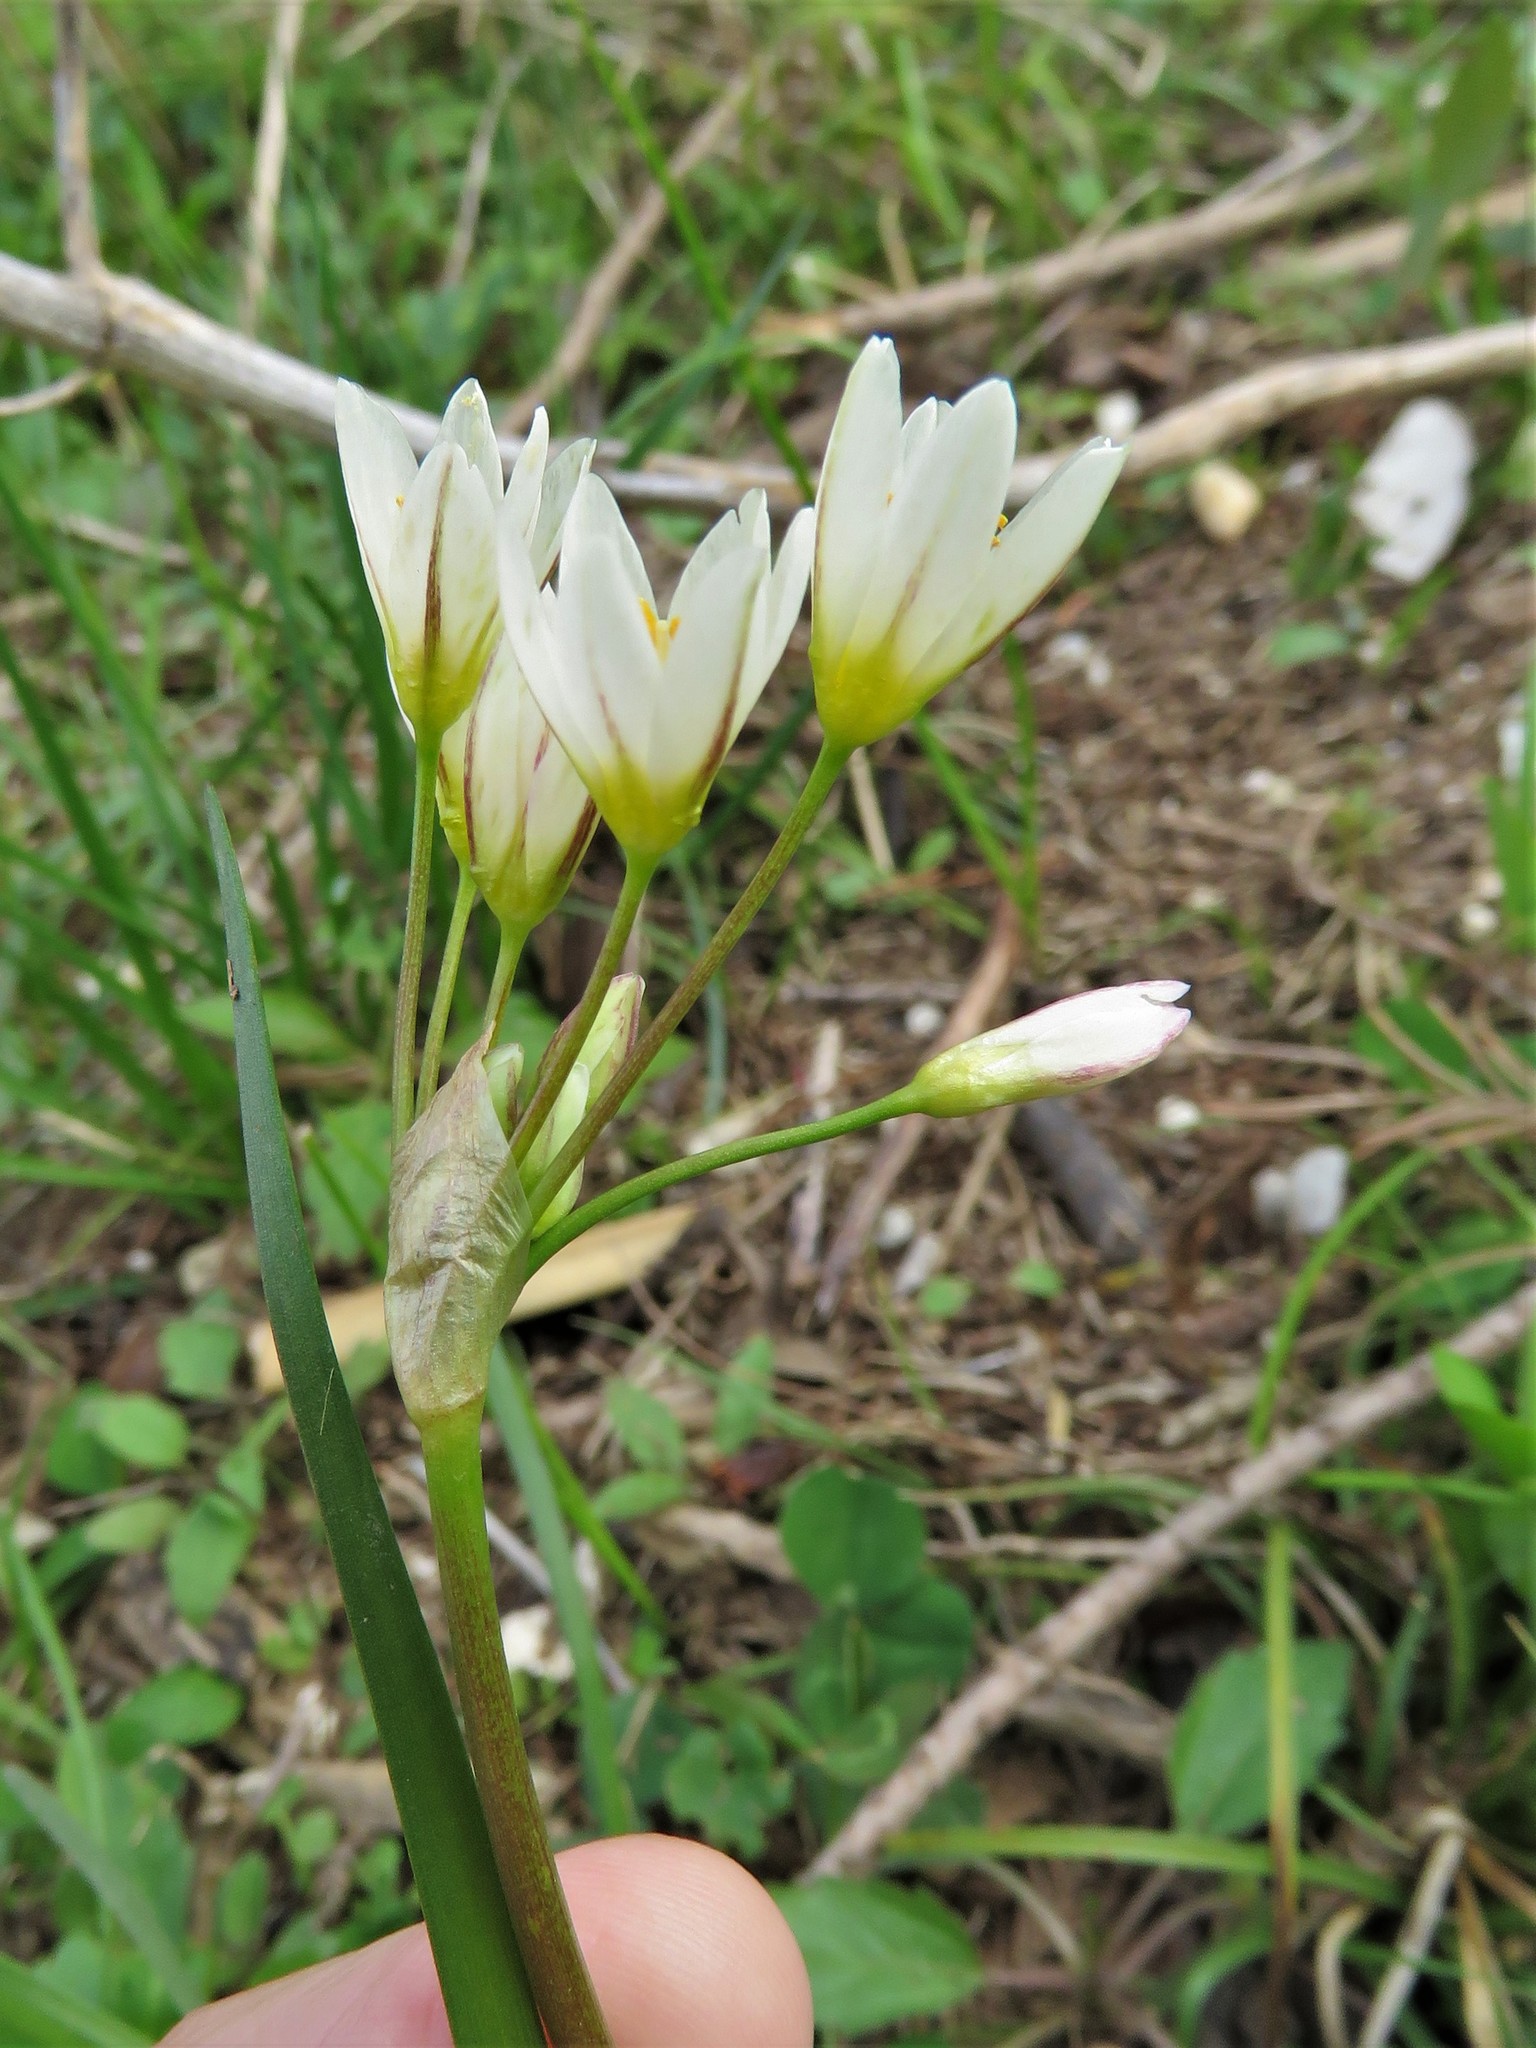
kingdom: Plantae
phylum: Tracheophyta
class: Liliopsida
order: Asparagales
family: Amaryllidaceae
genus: Nothoscordum
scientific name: Nothoscordum bivalve
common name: Crow-poison
